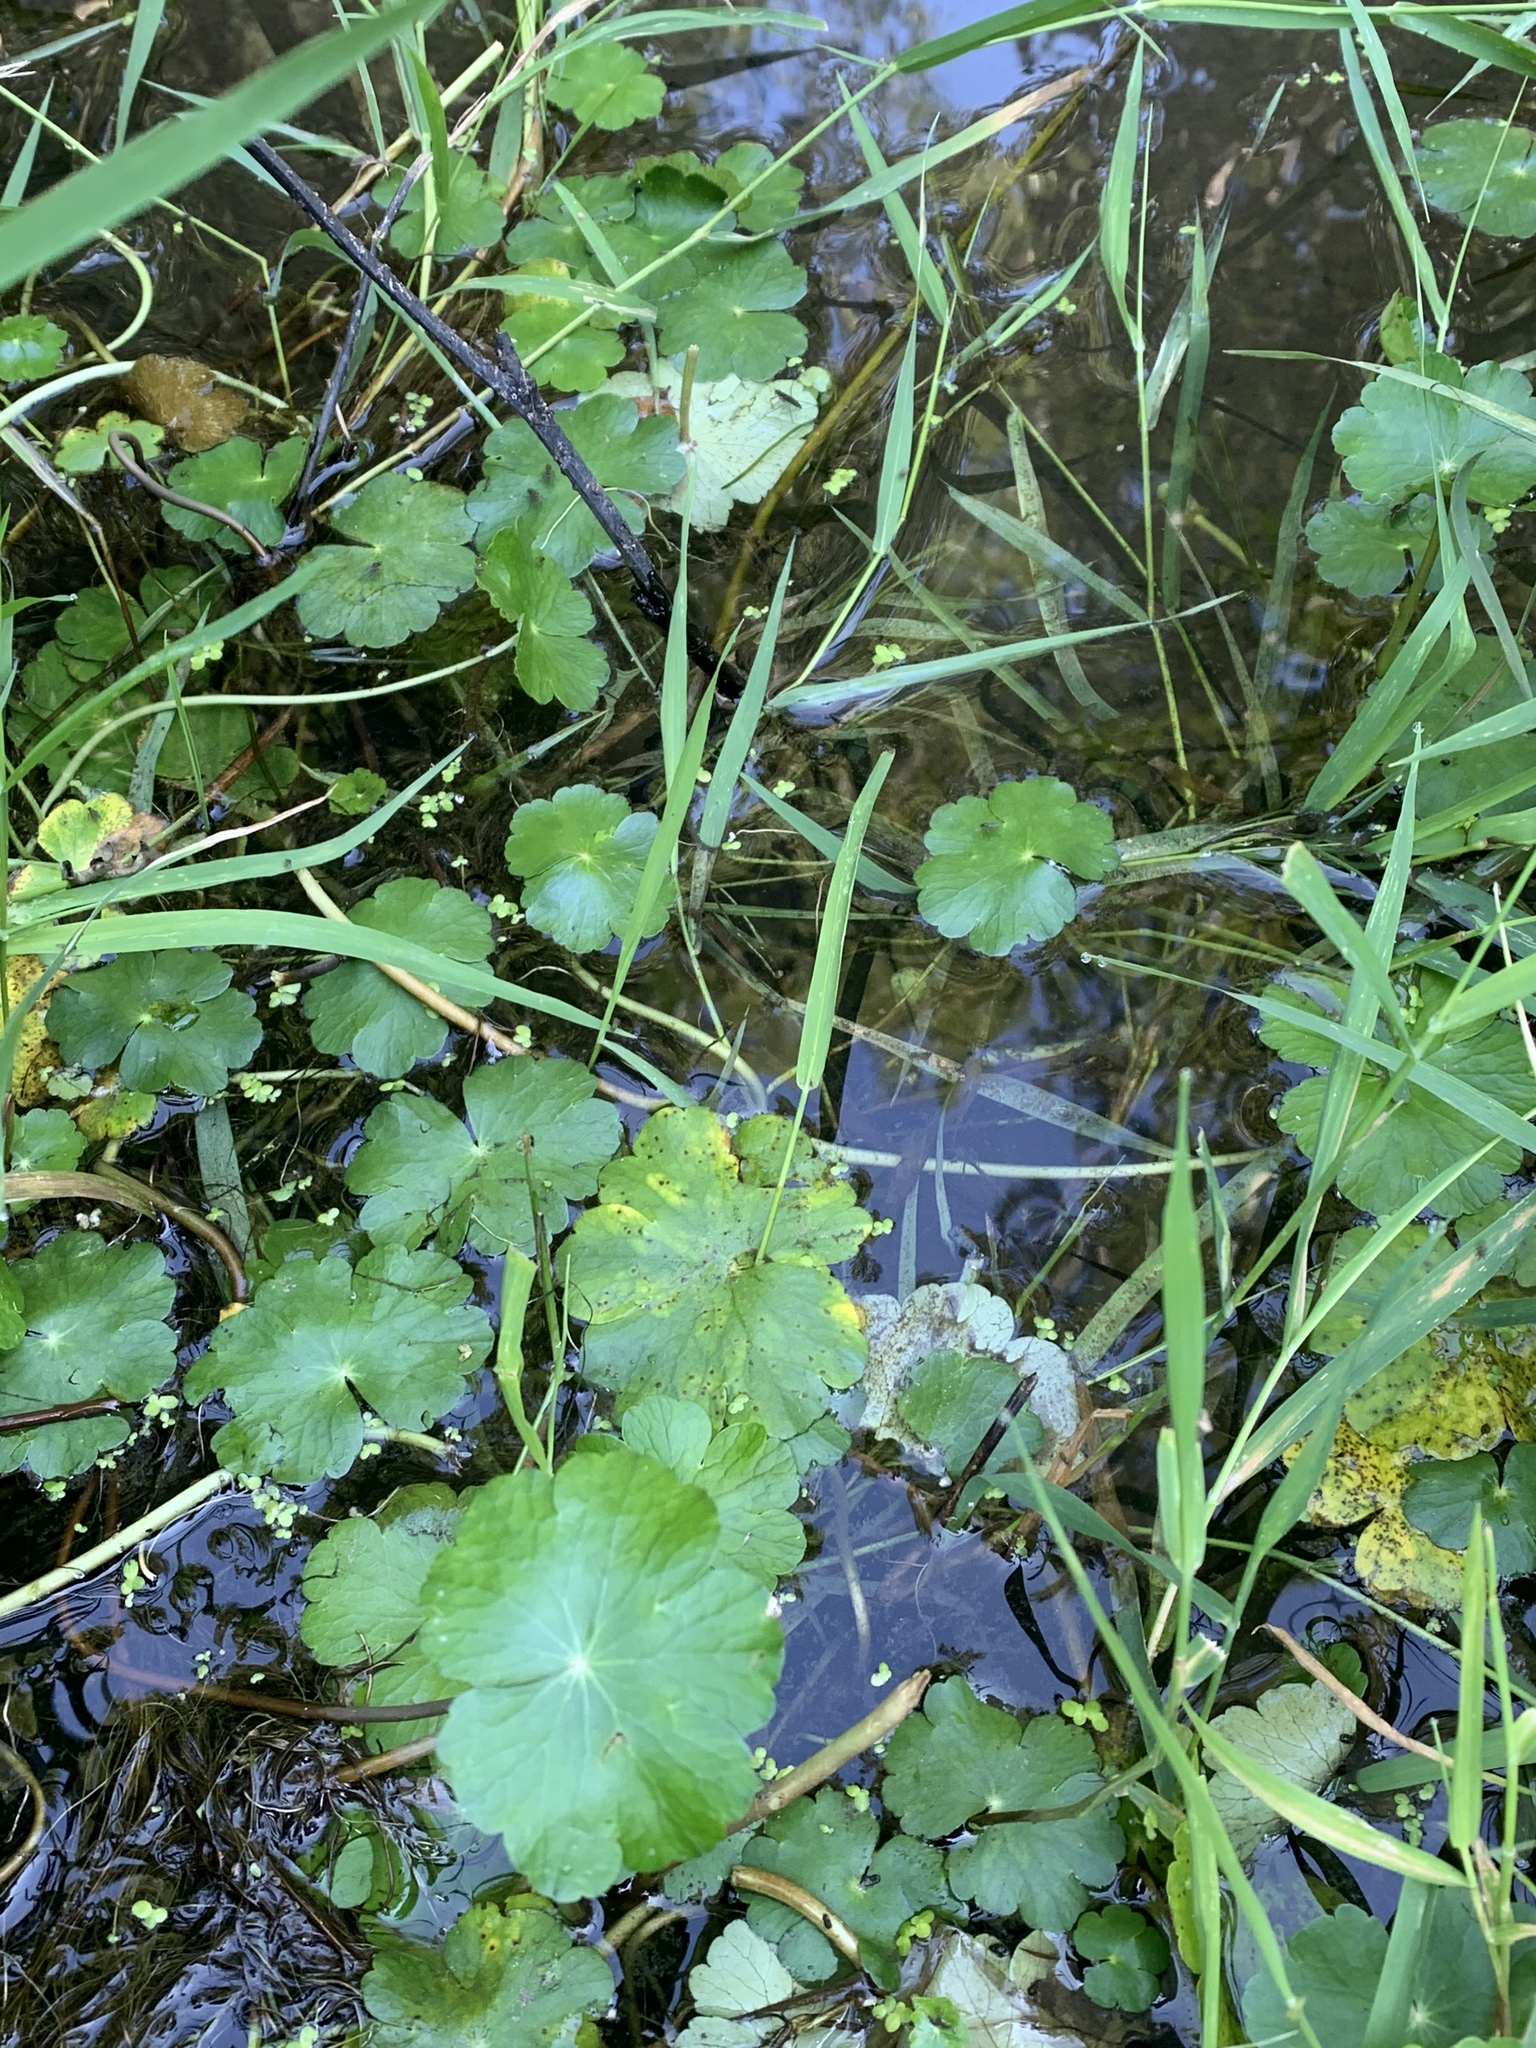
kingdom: Plantae
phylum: Tracheophyta
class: Magnoliopsida
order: Apiales
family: Araliaceae
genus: Hydrocotyle
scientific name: Hydrocotyle ranunculoides
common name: Floating pennywort
